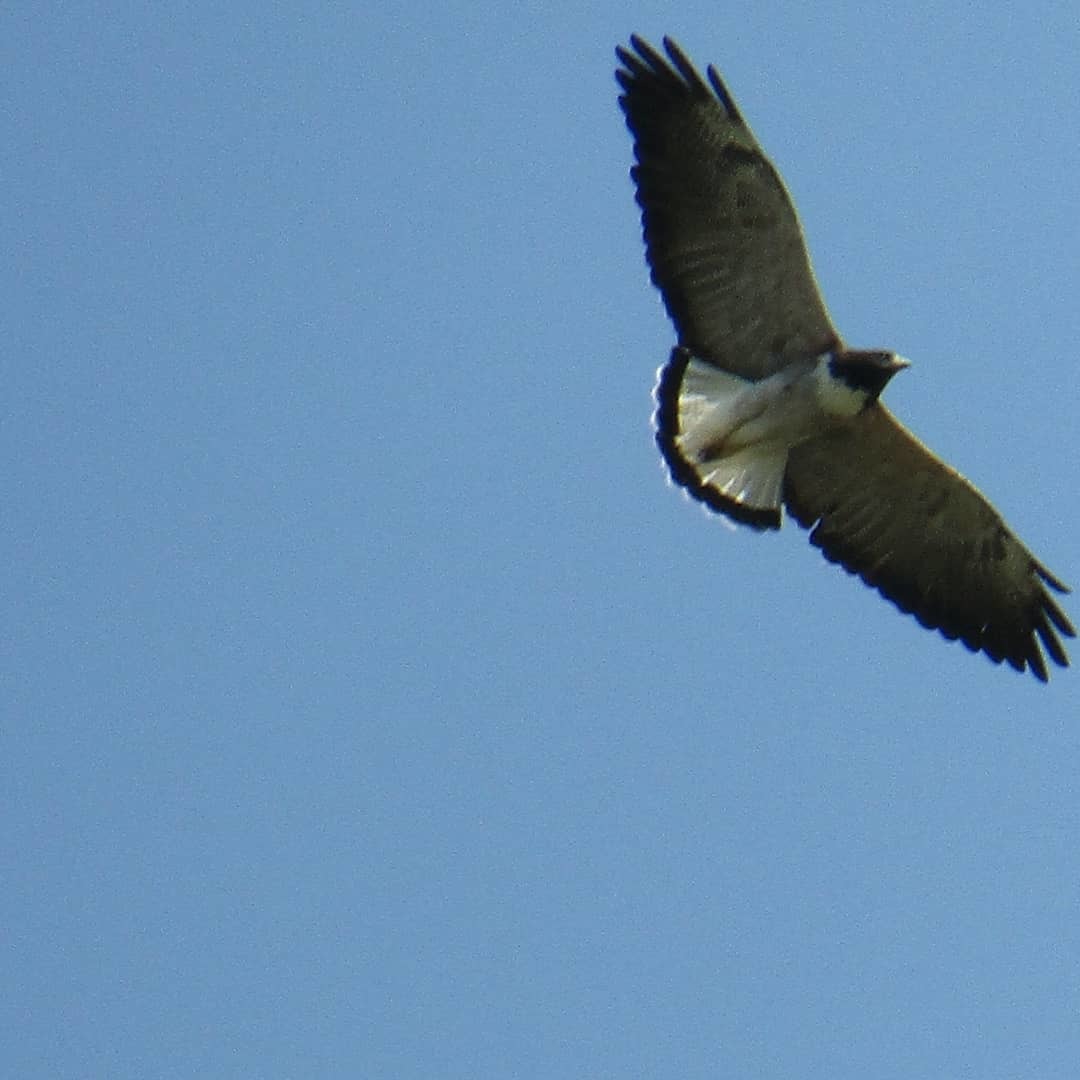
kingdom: Animalia
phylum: Chordata
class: Aves
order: Accipitriformes
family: Accipitridae
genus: Buteo
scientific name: Buteo albicaudatus
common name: White-tailed hawk
